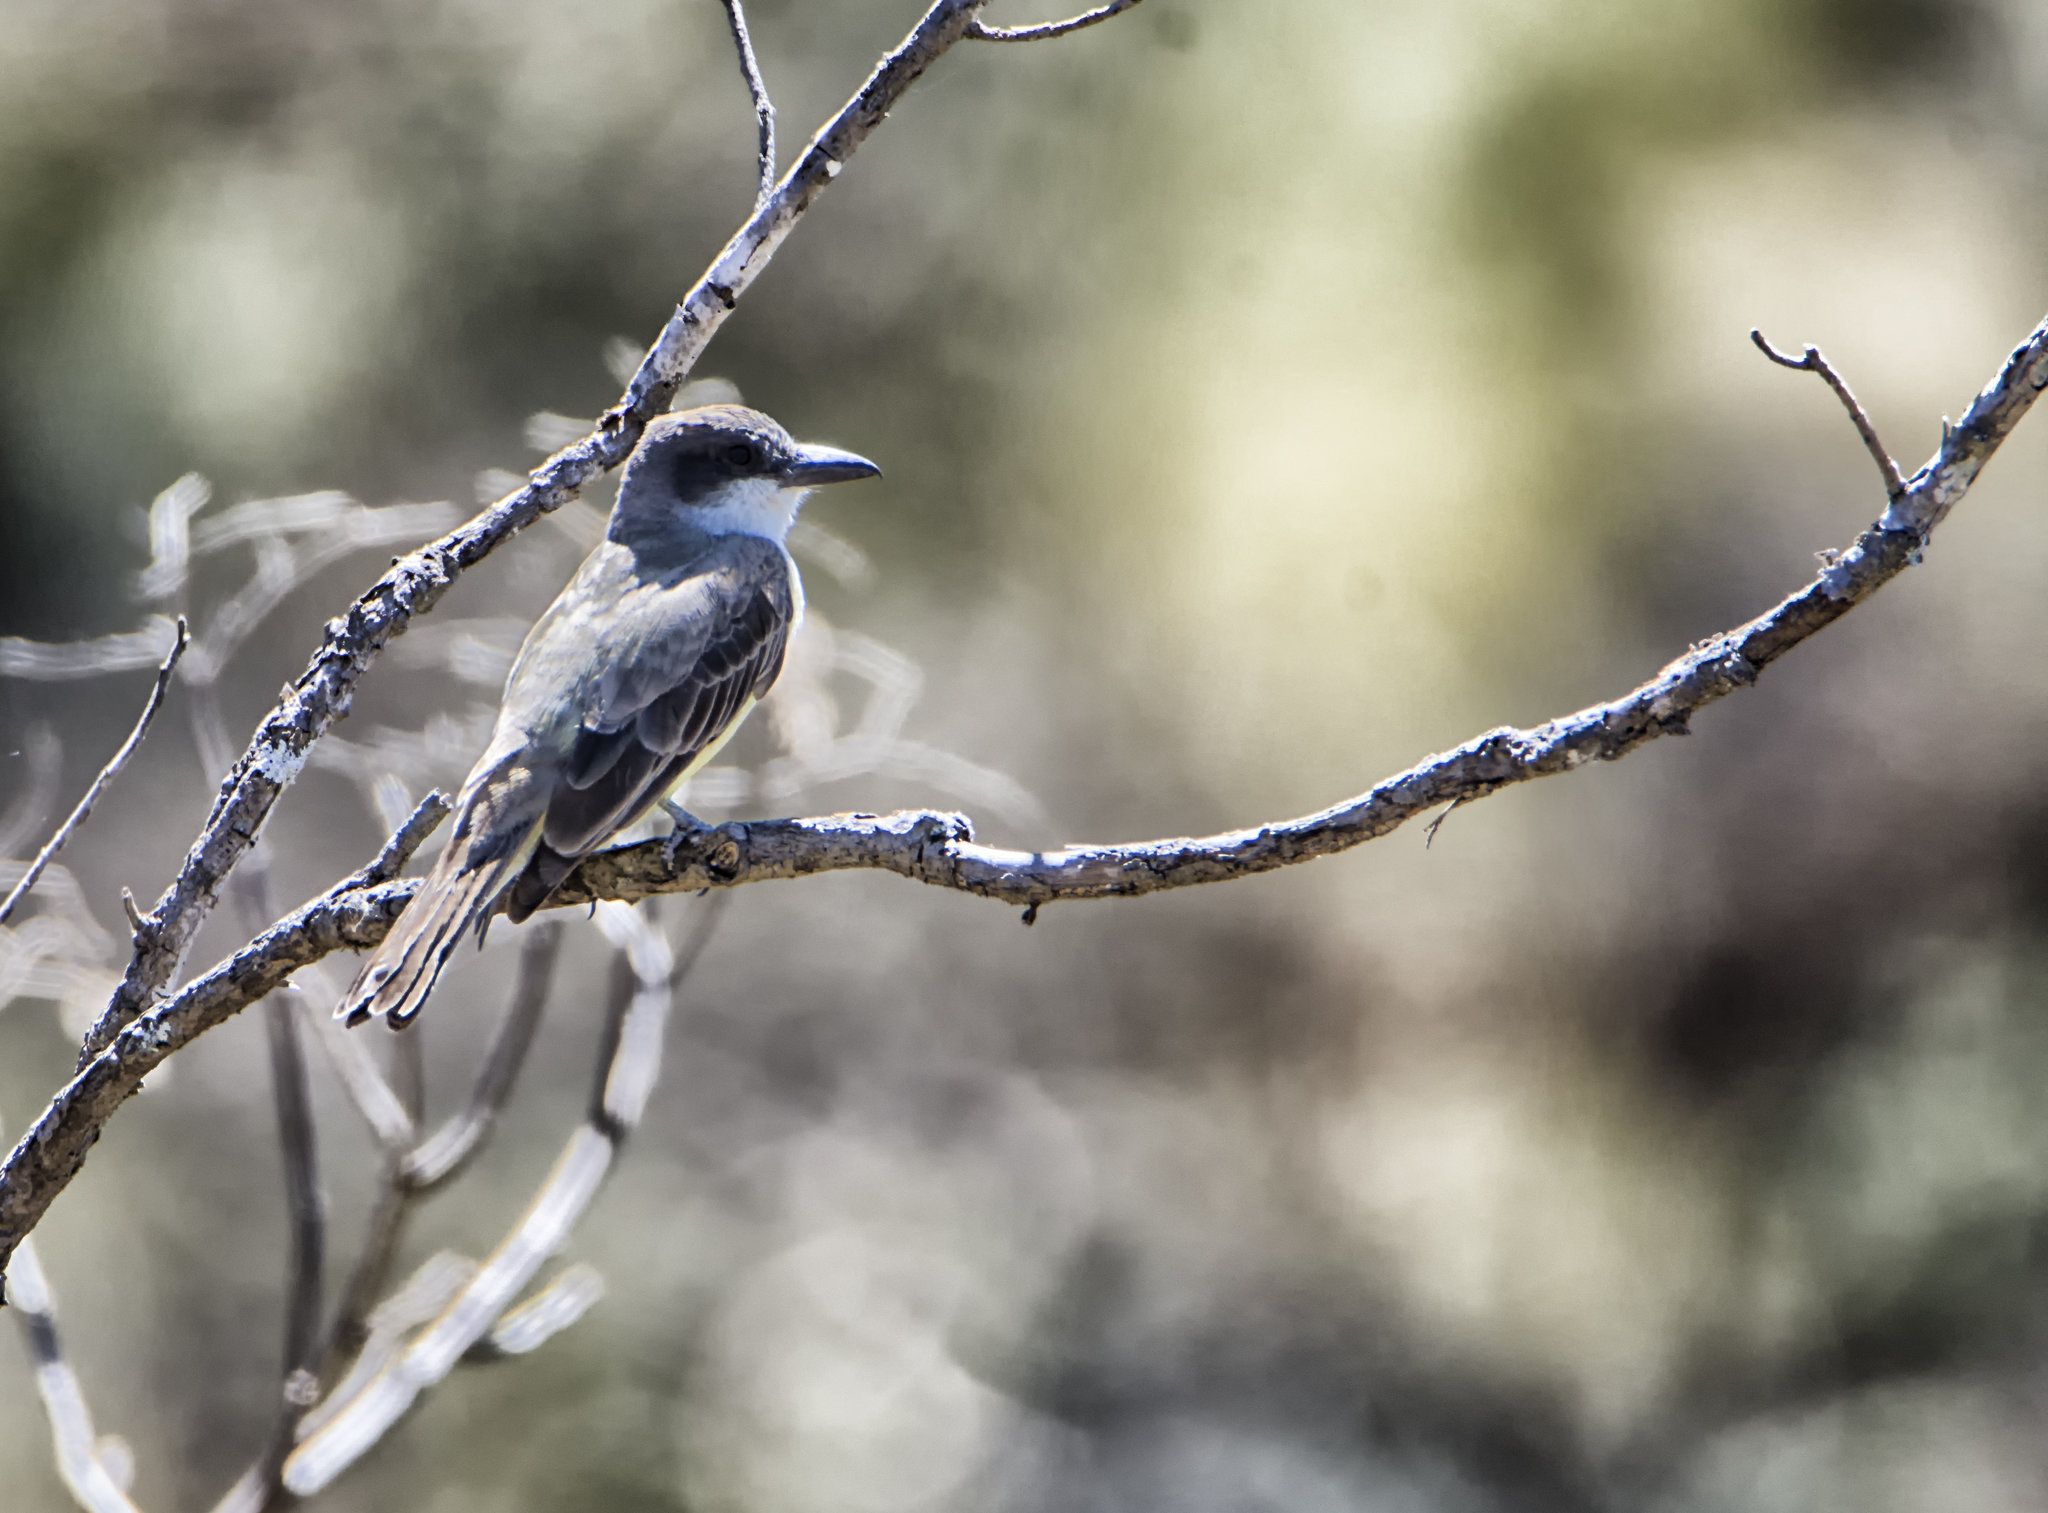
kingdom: Animalia
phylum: Chordata
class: Aves
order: Passeriformes
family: Tyrannidae
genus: Tyrannus
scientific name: Tyrannus crassirostris
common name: Thick-billed kingbird
